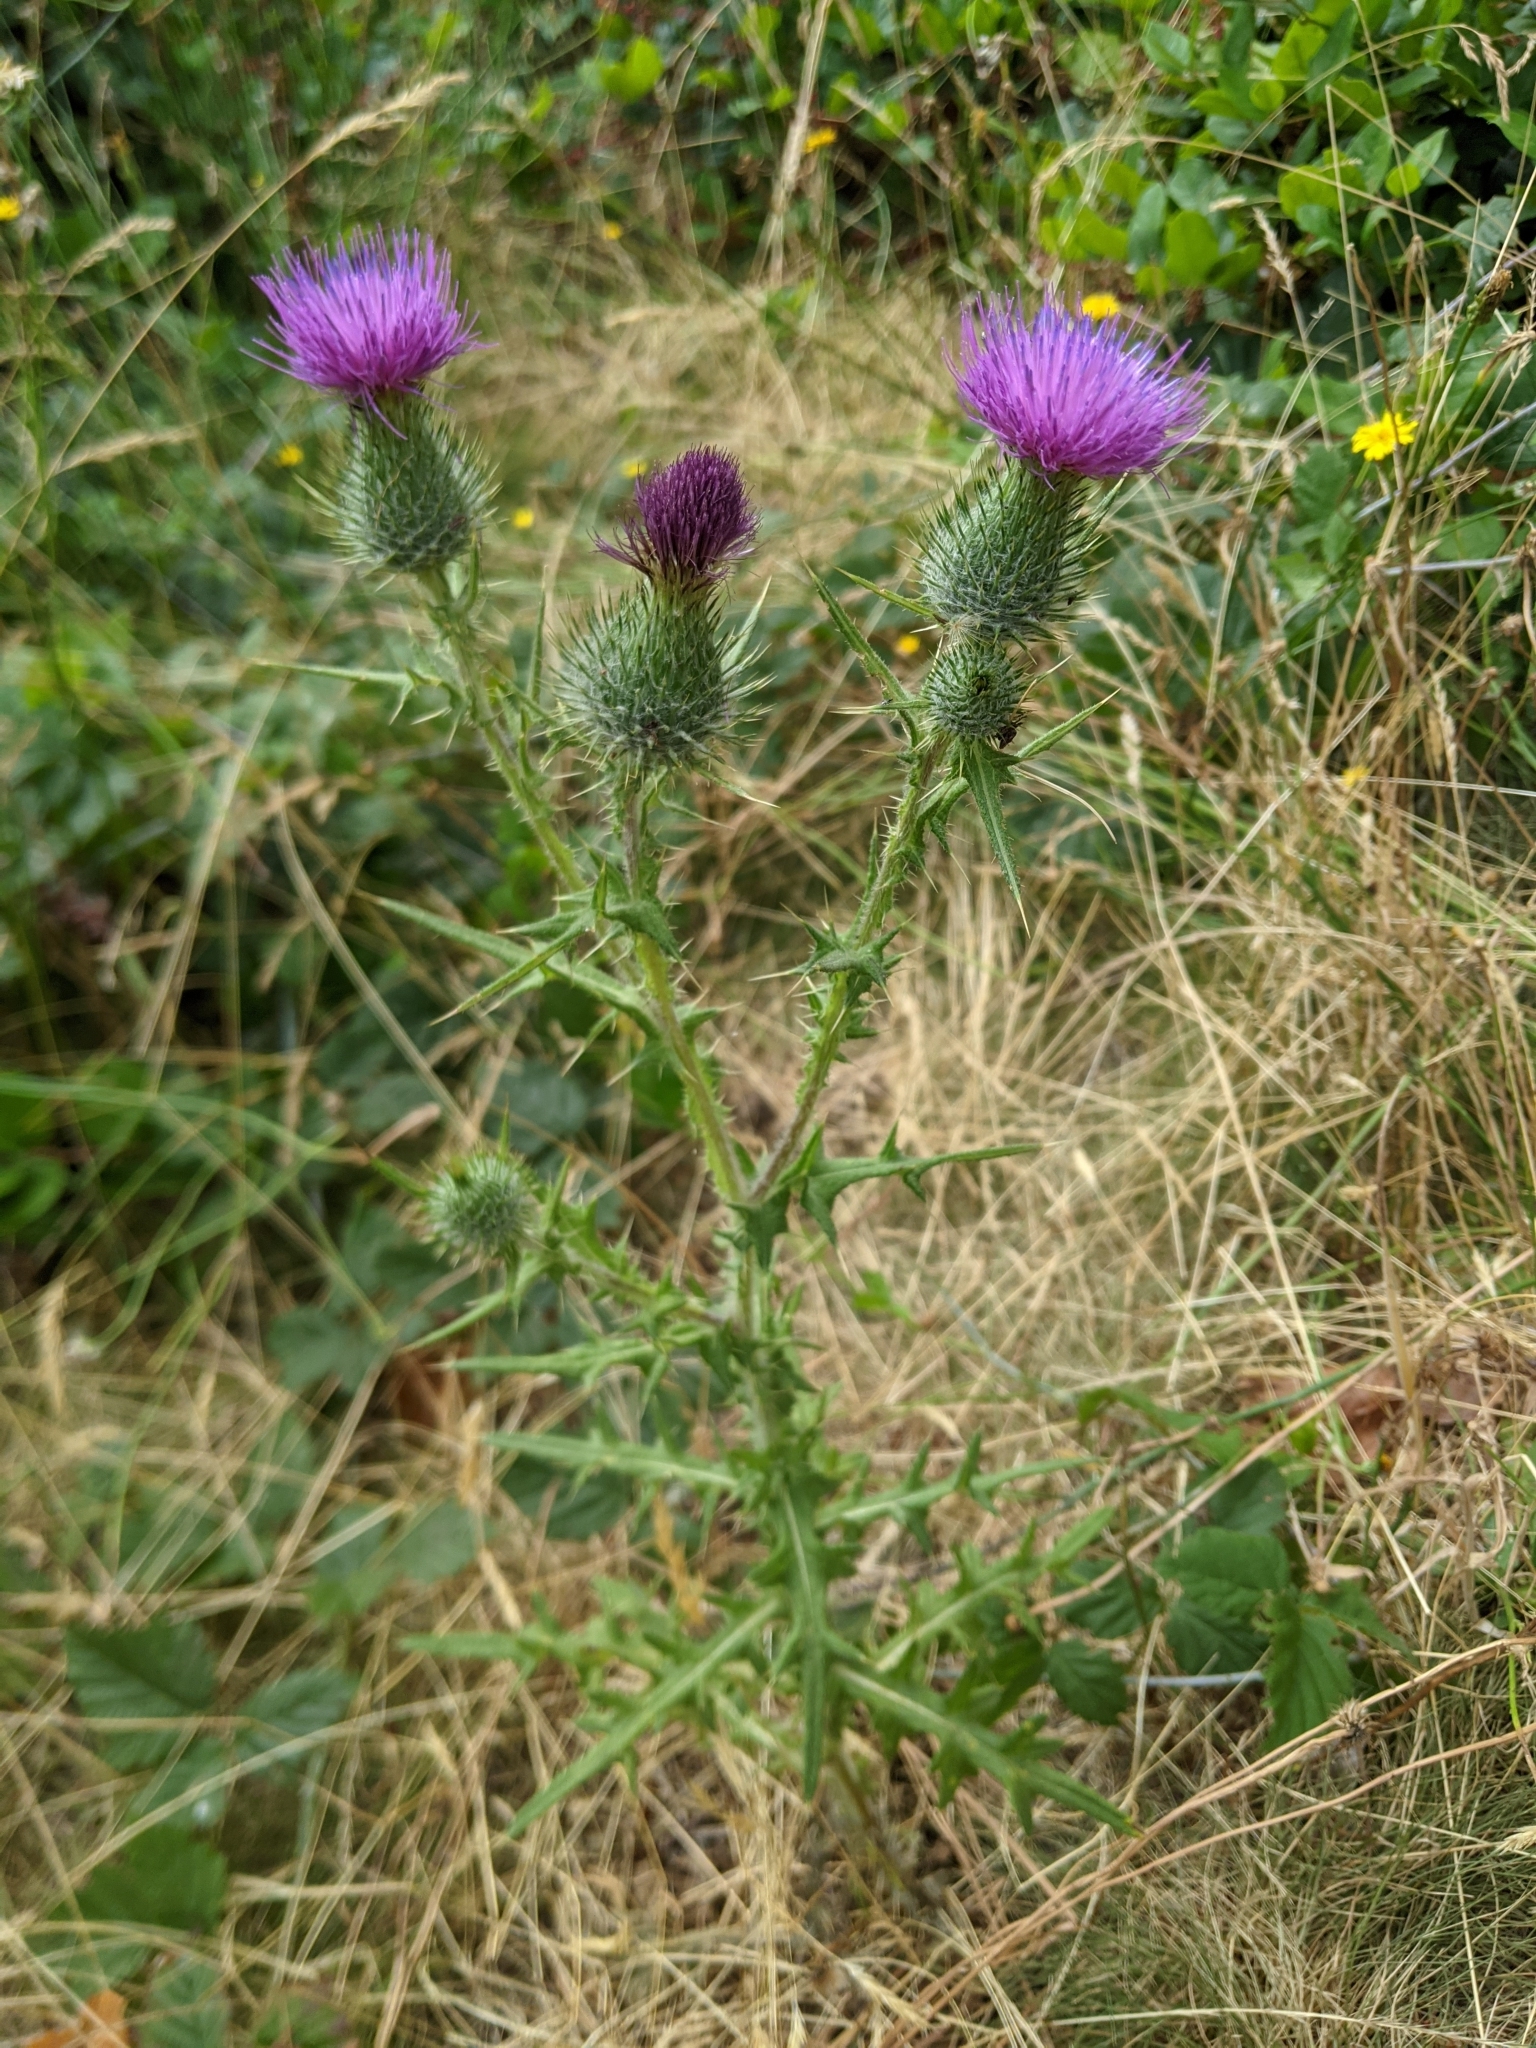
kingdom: Plantae
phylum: Tracheophyta
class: Magnoliopsida
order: Asterales
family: Asteraceae
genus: Cirsium
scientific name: Cirsium vulgare
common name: Bull thistle
